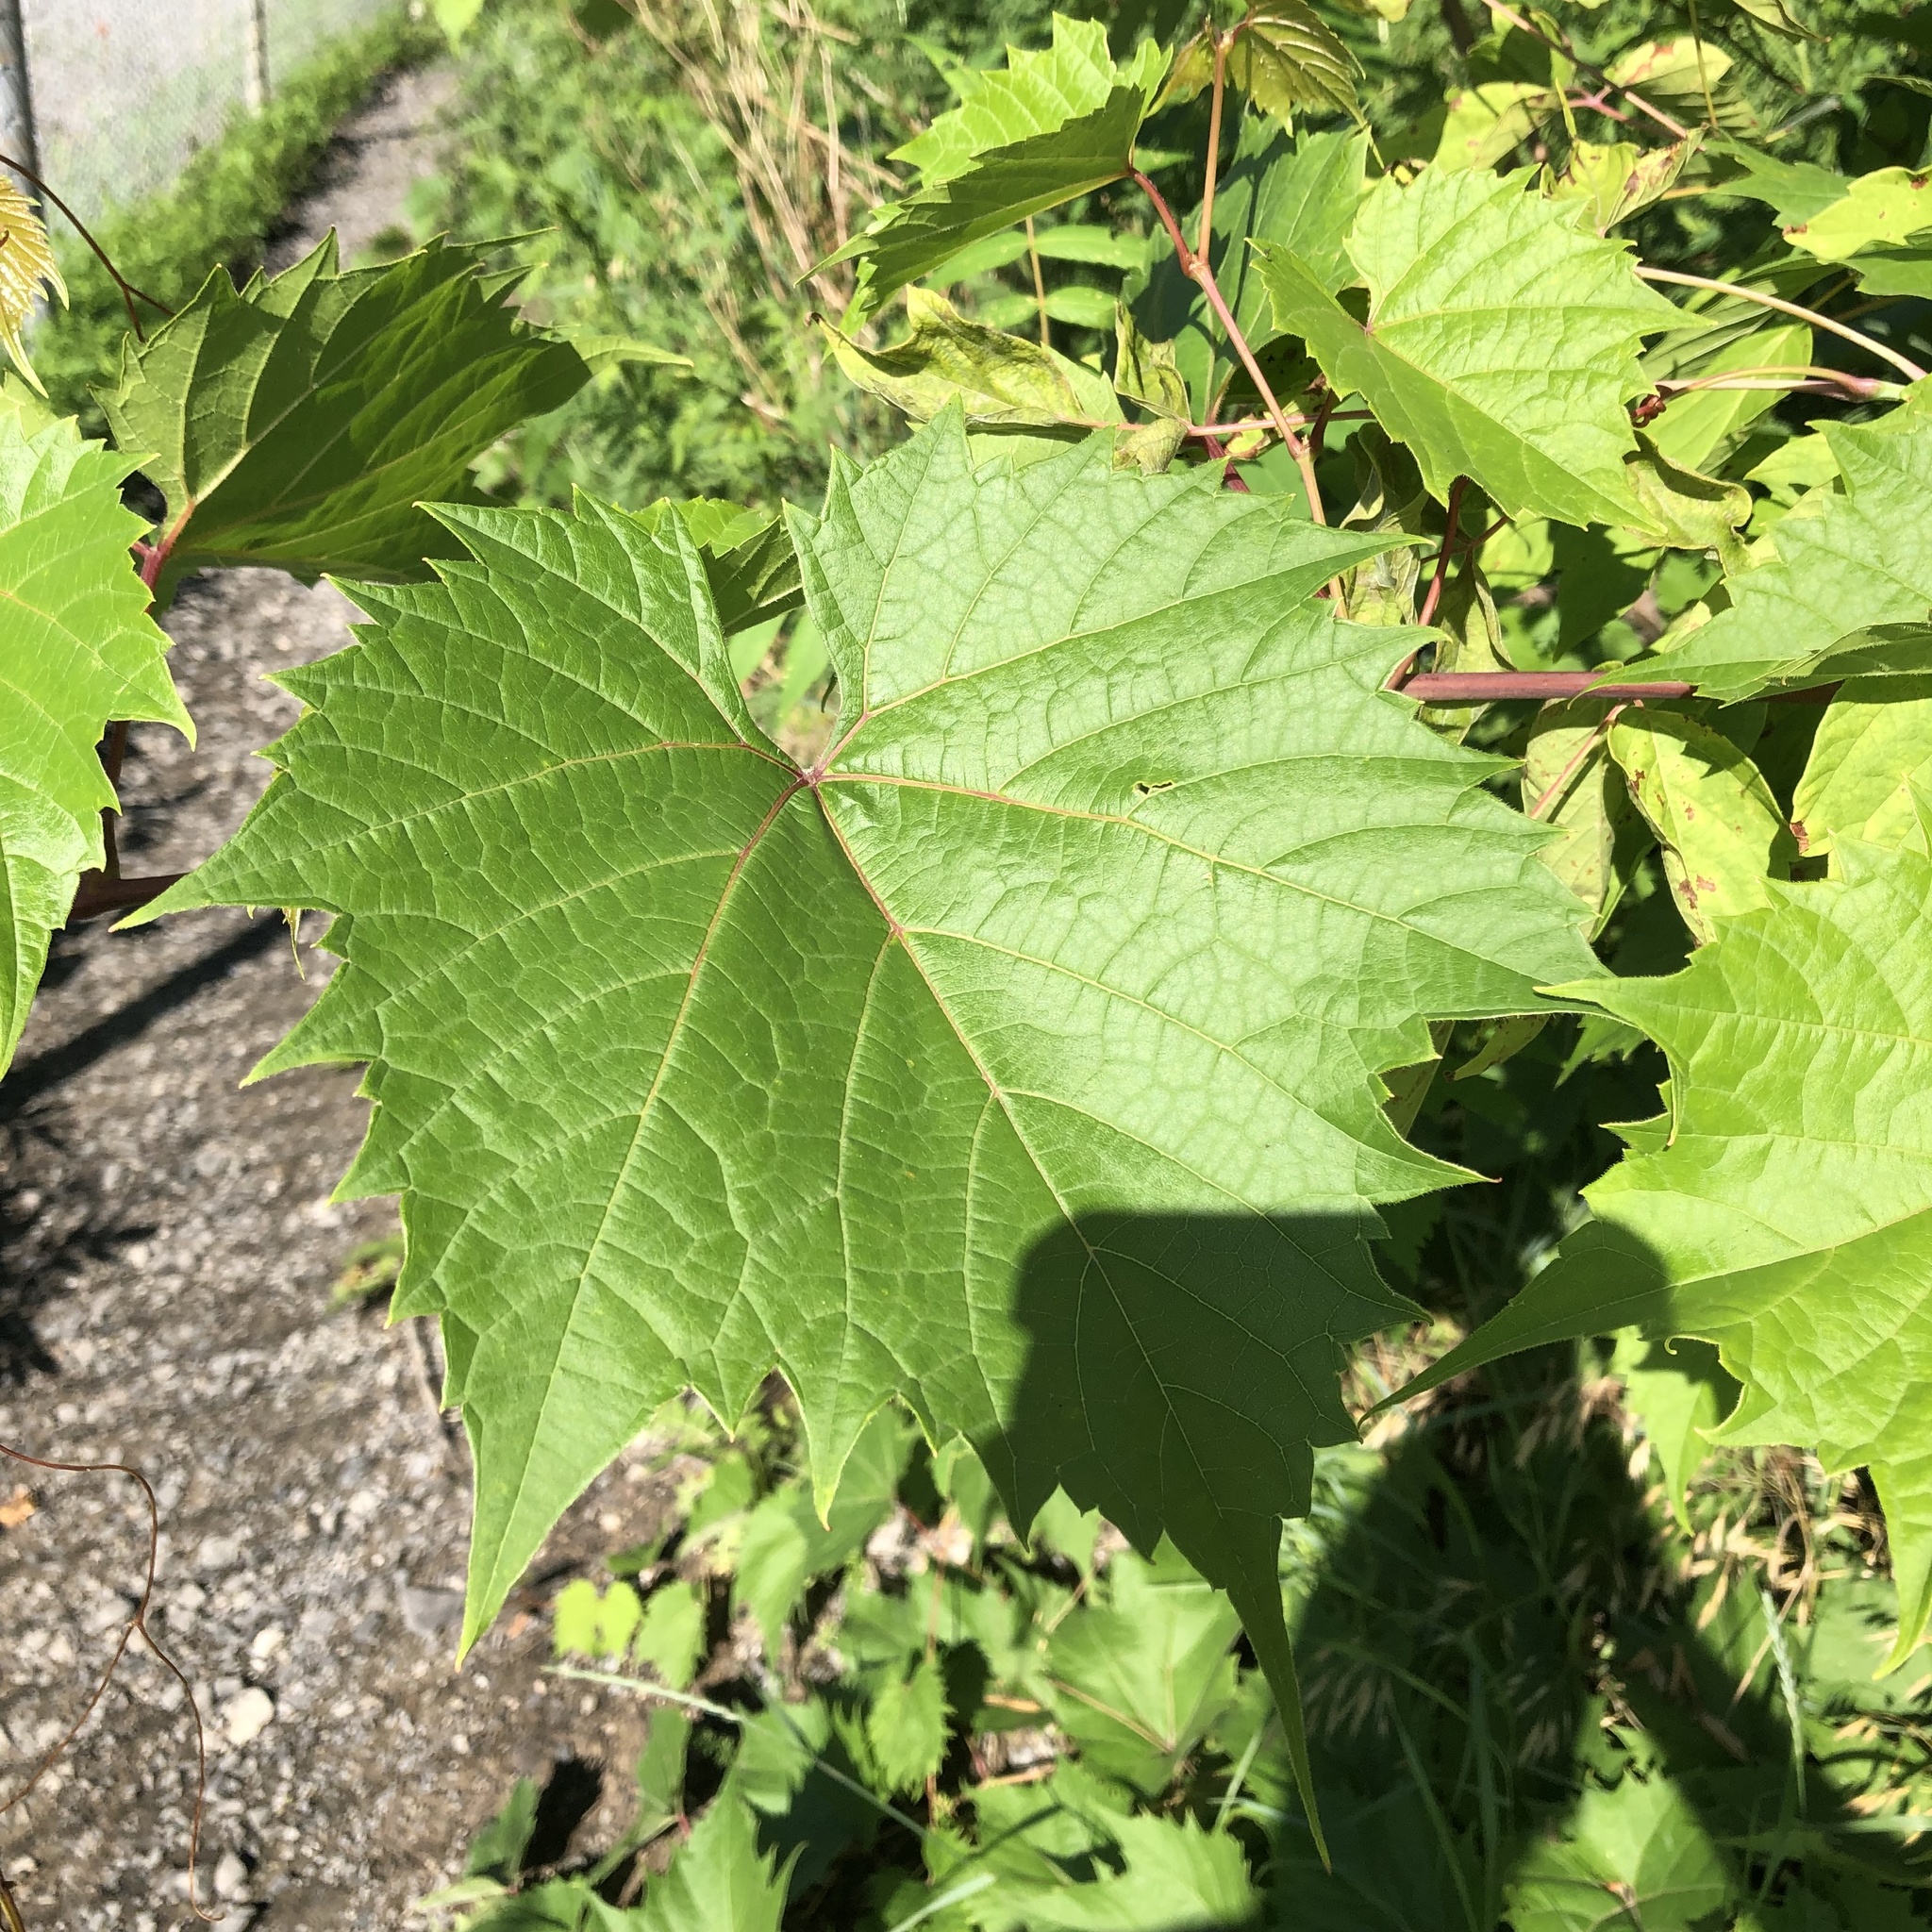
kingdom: Plantae
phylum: Tracheophyta
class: Magnoliopsida
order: Vitales
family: Vitaceae
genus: Vitis
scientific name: Vitis riparia
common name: Frost grape
